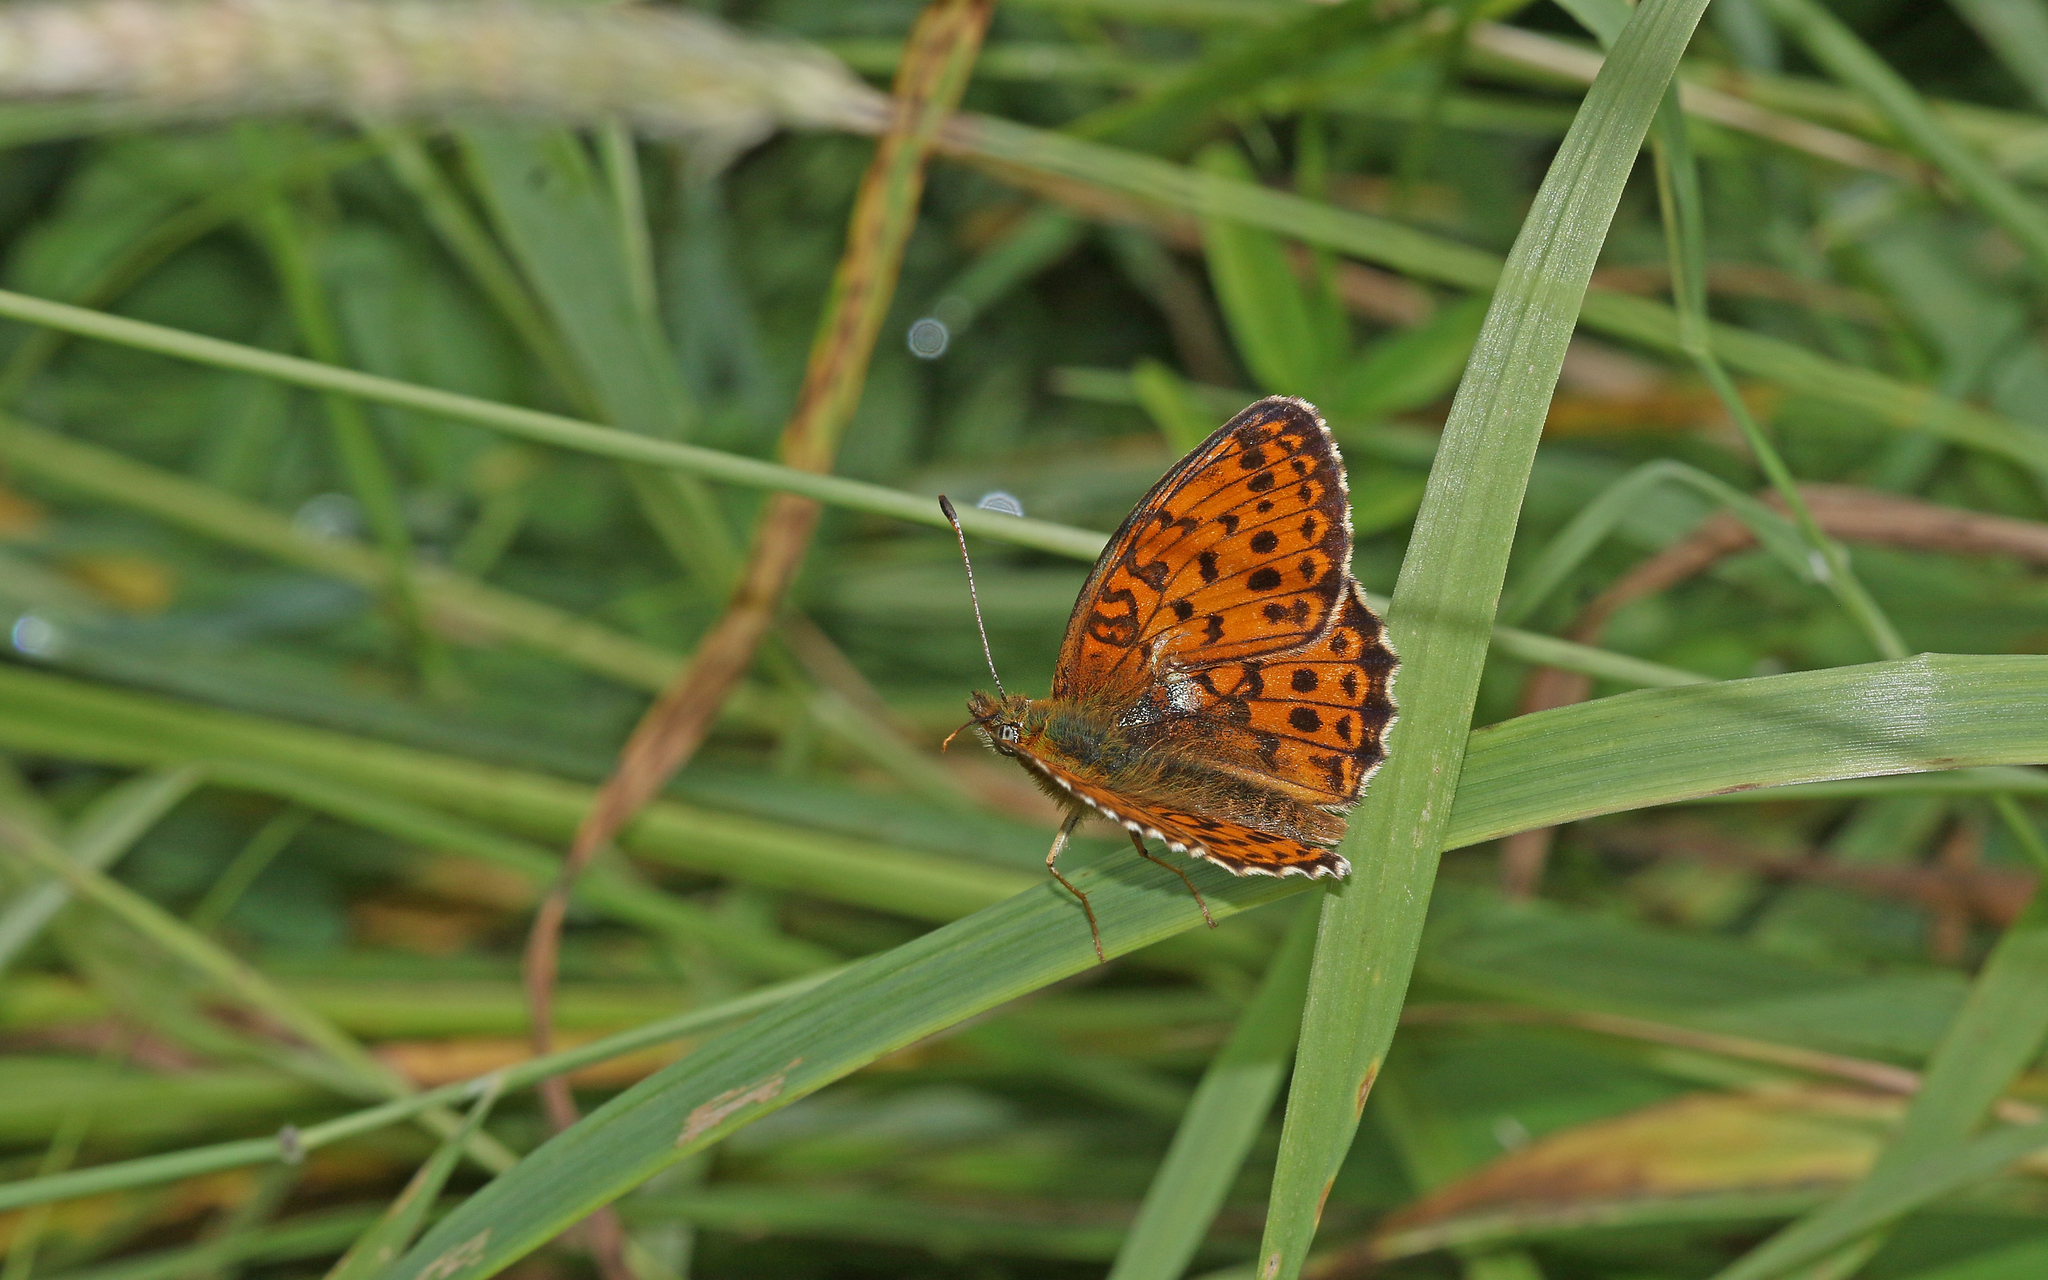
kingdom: Animalia
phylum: Arthropoda
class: Insecta
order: Lepidoptera
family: Nymphalidae
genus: Brenthis
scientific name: Brenthis ino
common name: Lesser marbled fritillary
